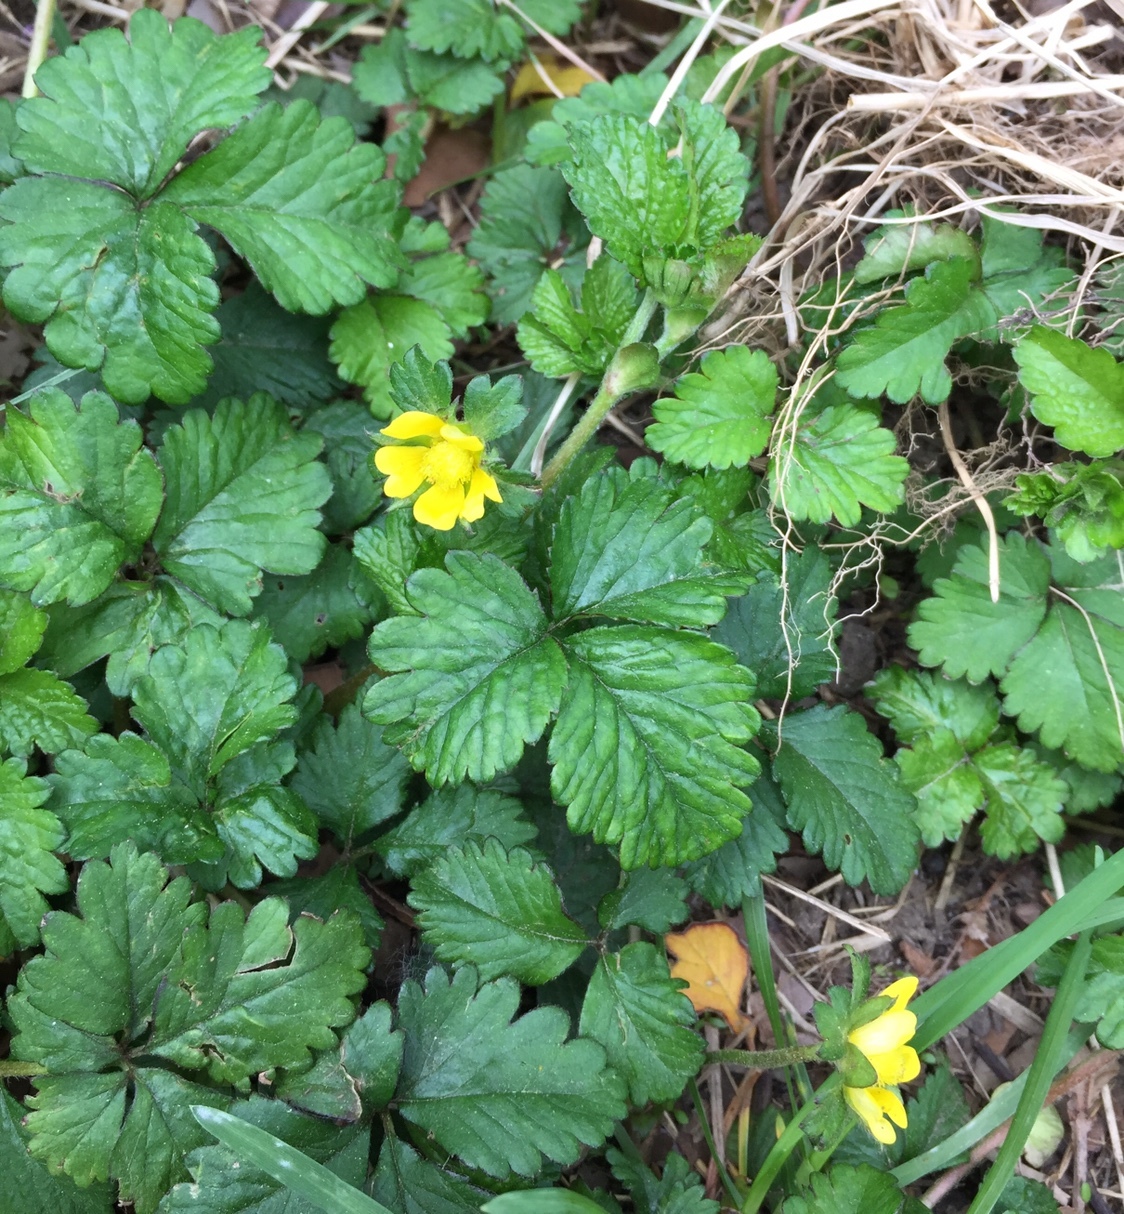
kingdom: Plantae
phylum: Tracheophyta
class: Magnoliopsida
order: Rosales
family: Rosaceae
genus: Potentilla
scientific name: Potentilla indica
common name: Yellow-flowered strawberry
